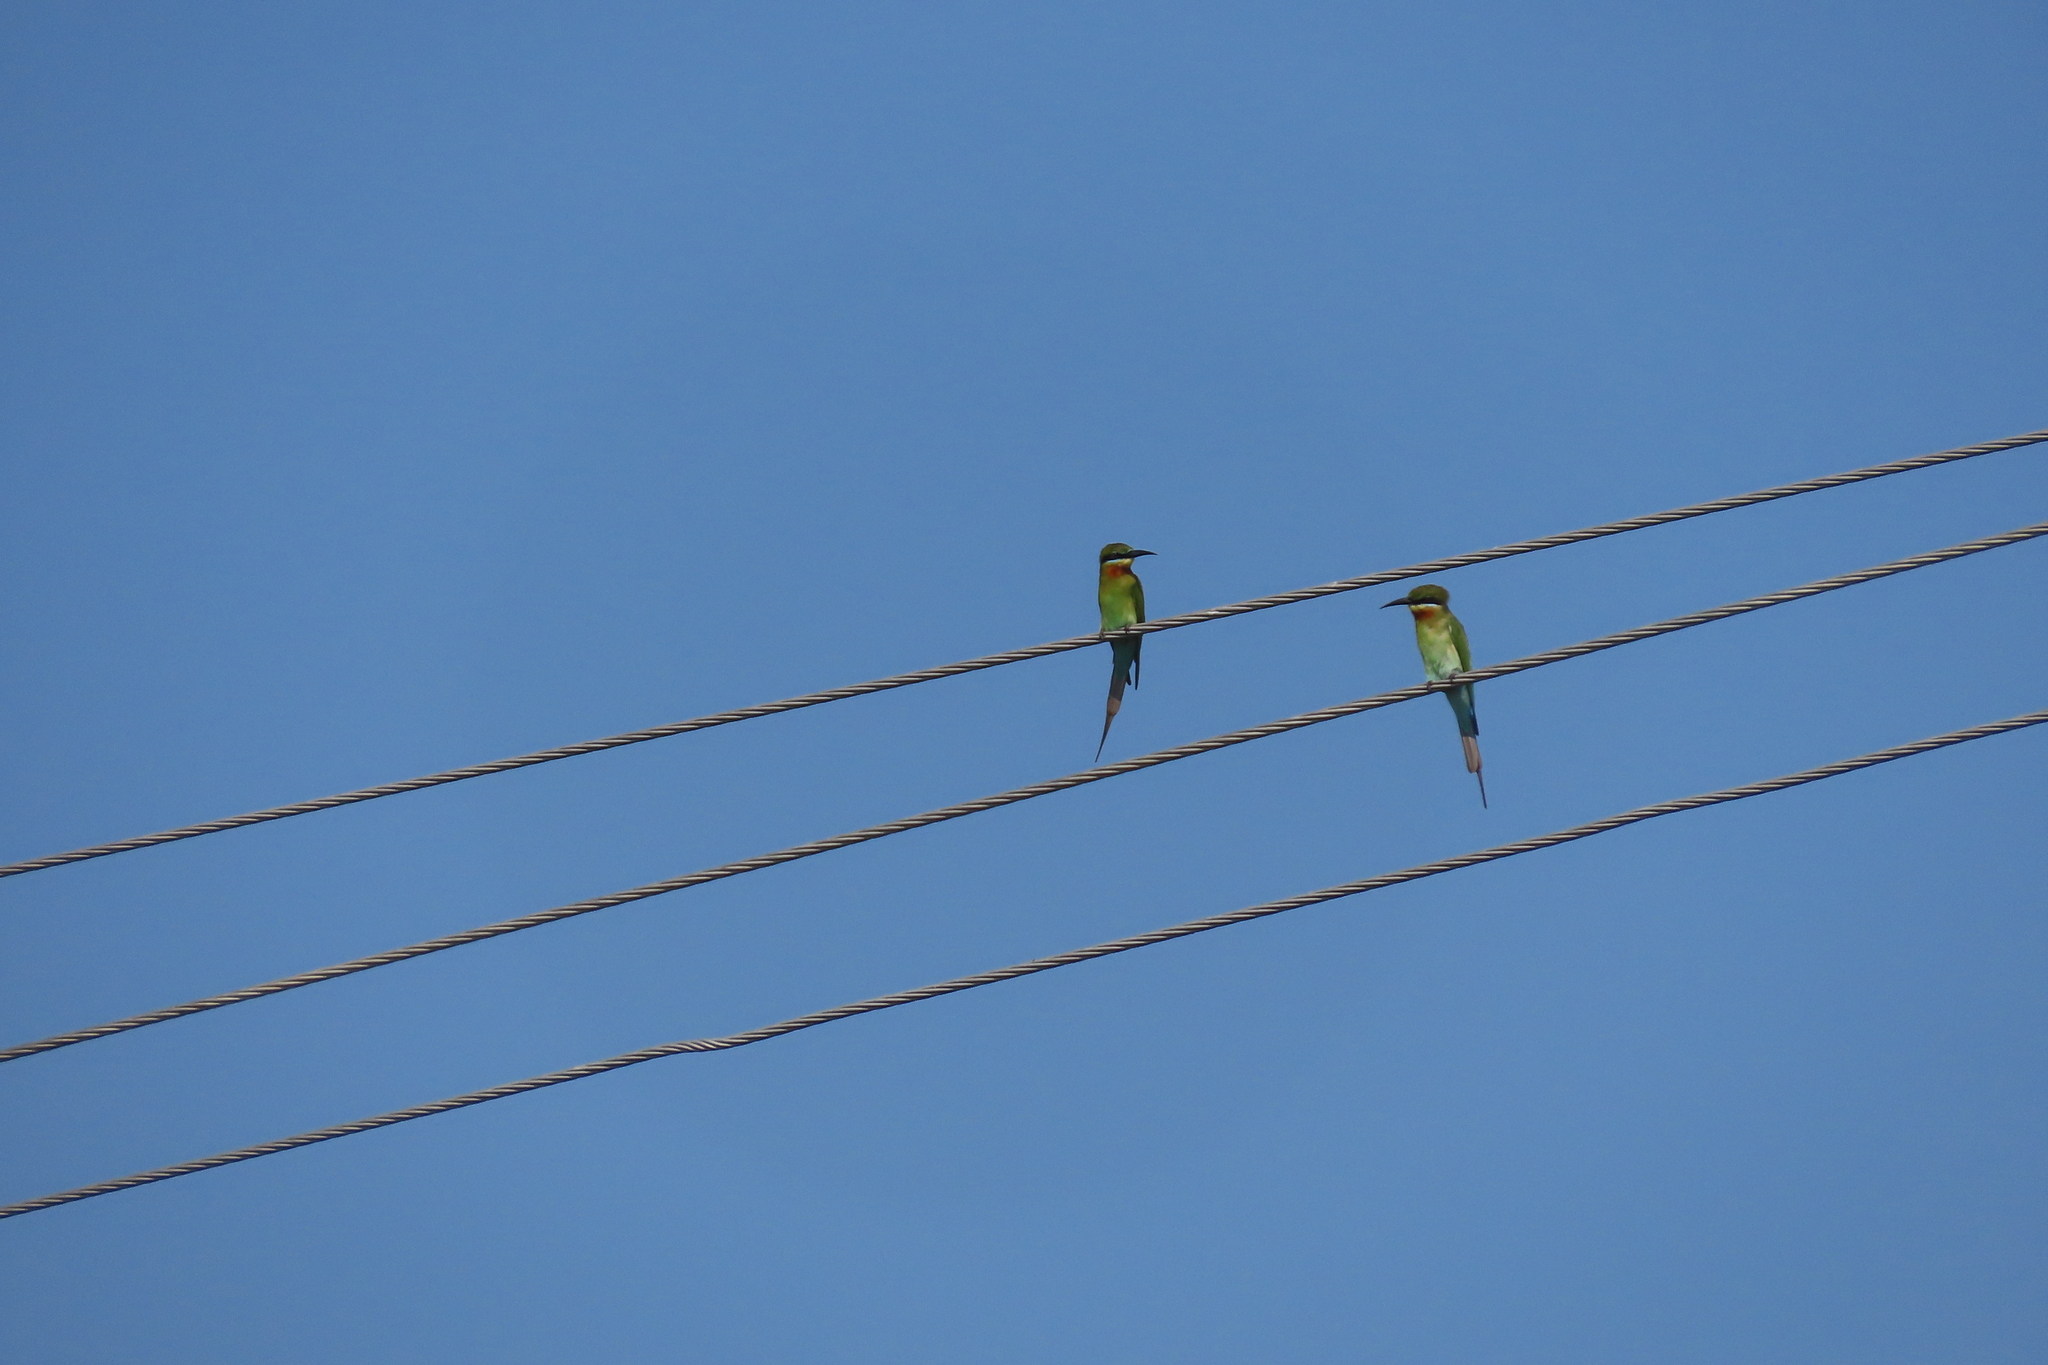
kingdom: Animalia
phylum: Chordata
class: Aves
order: Coraciiformes
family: Meropidae
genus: Merops
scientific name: Merops philippinus
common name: Blue-tailed bee-eater
